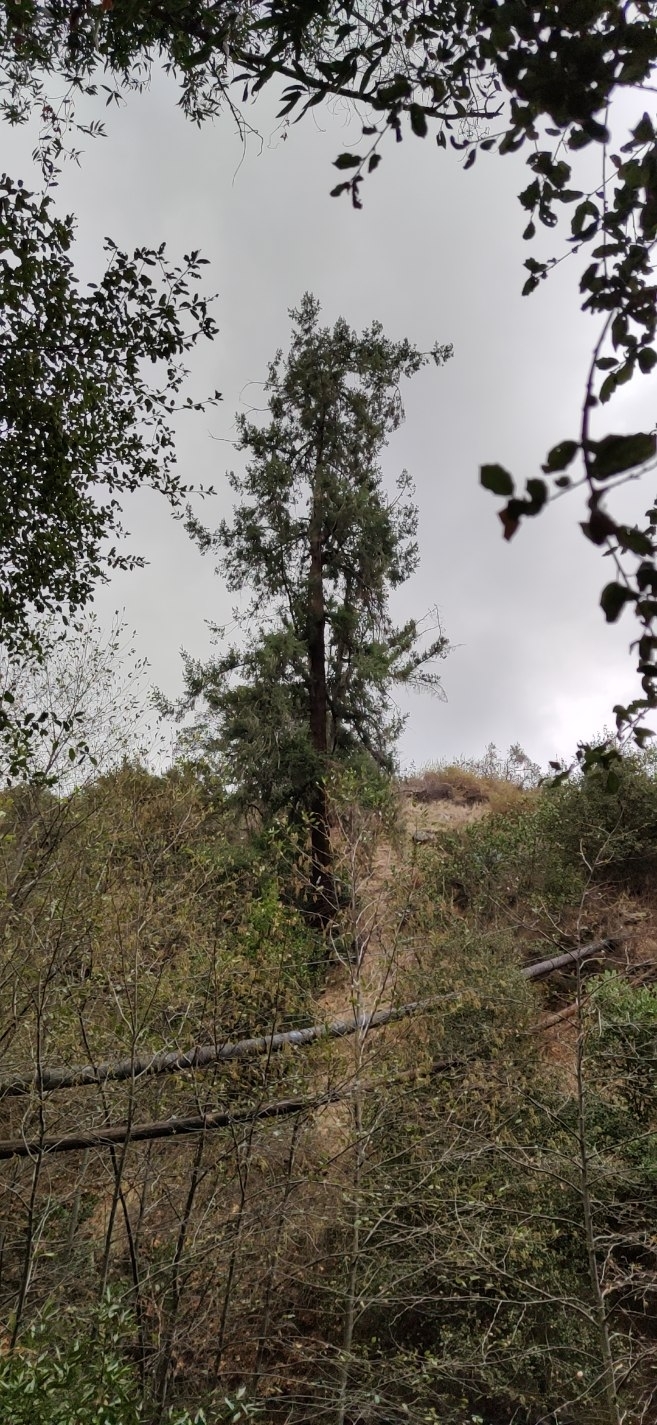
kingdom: Plantae
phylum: Tracheophyta
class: Pinopsida
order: Pinales
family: Pinaceae
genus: Pseudotsuga
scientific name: Pseudotsuga macrocarpa
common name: Big-cone douglas-fir
